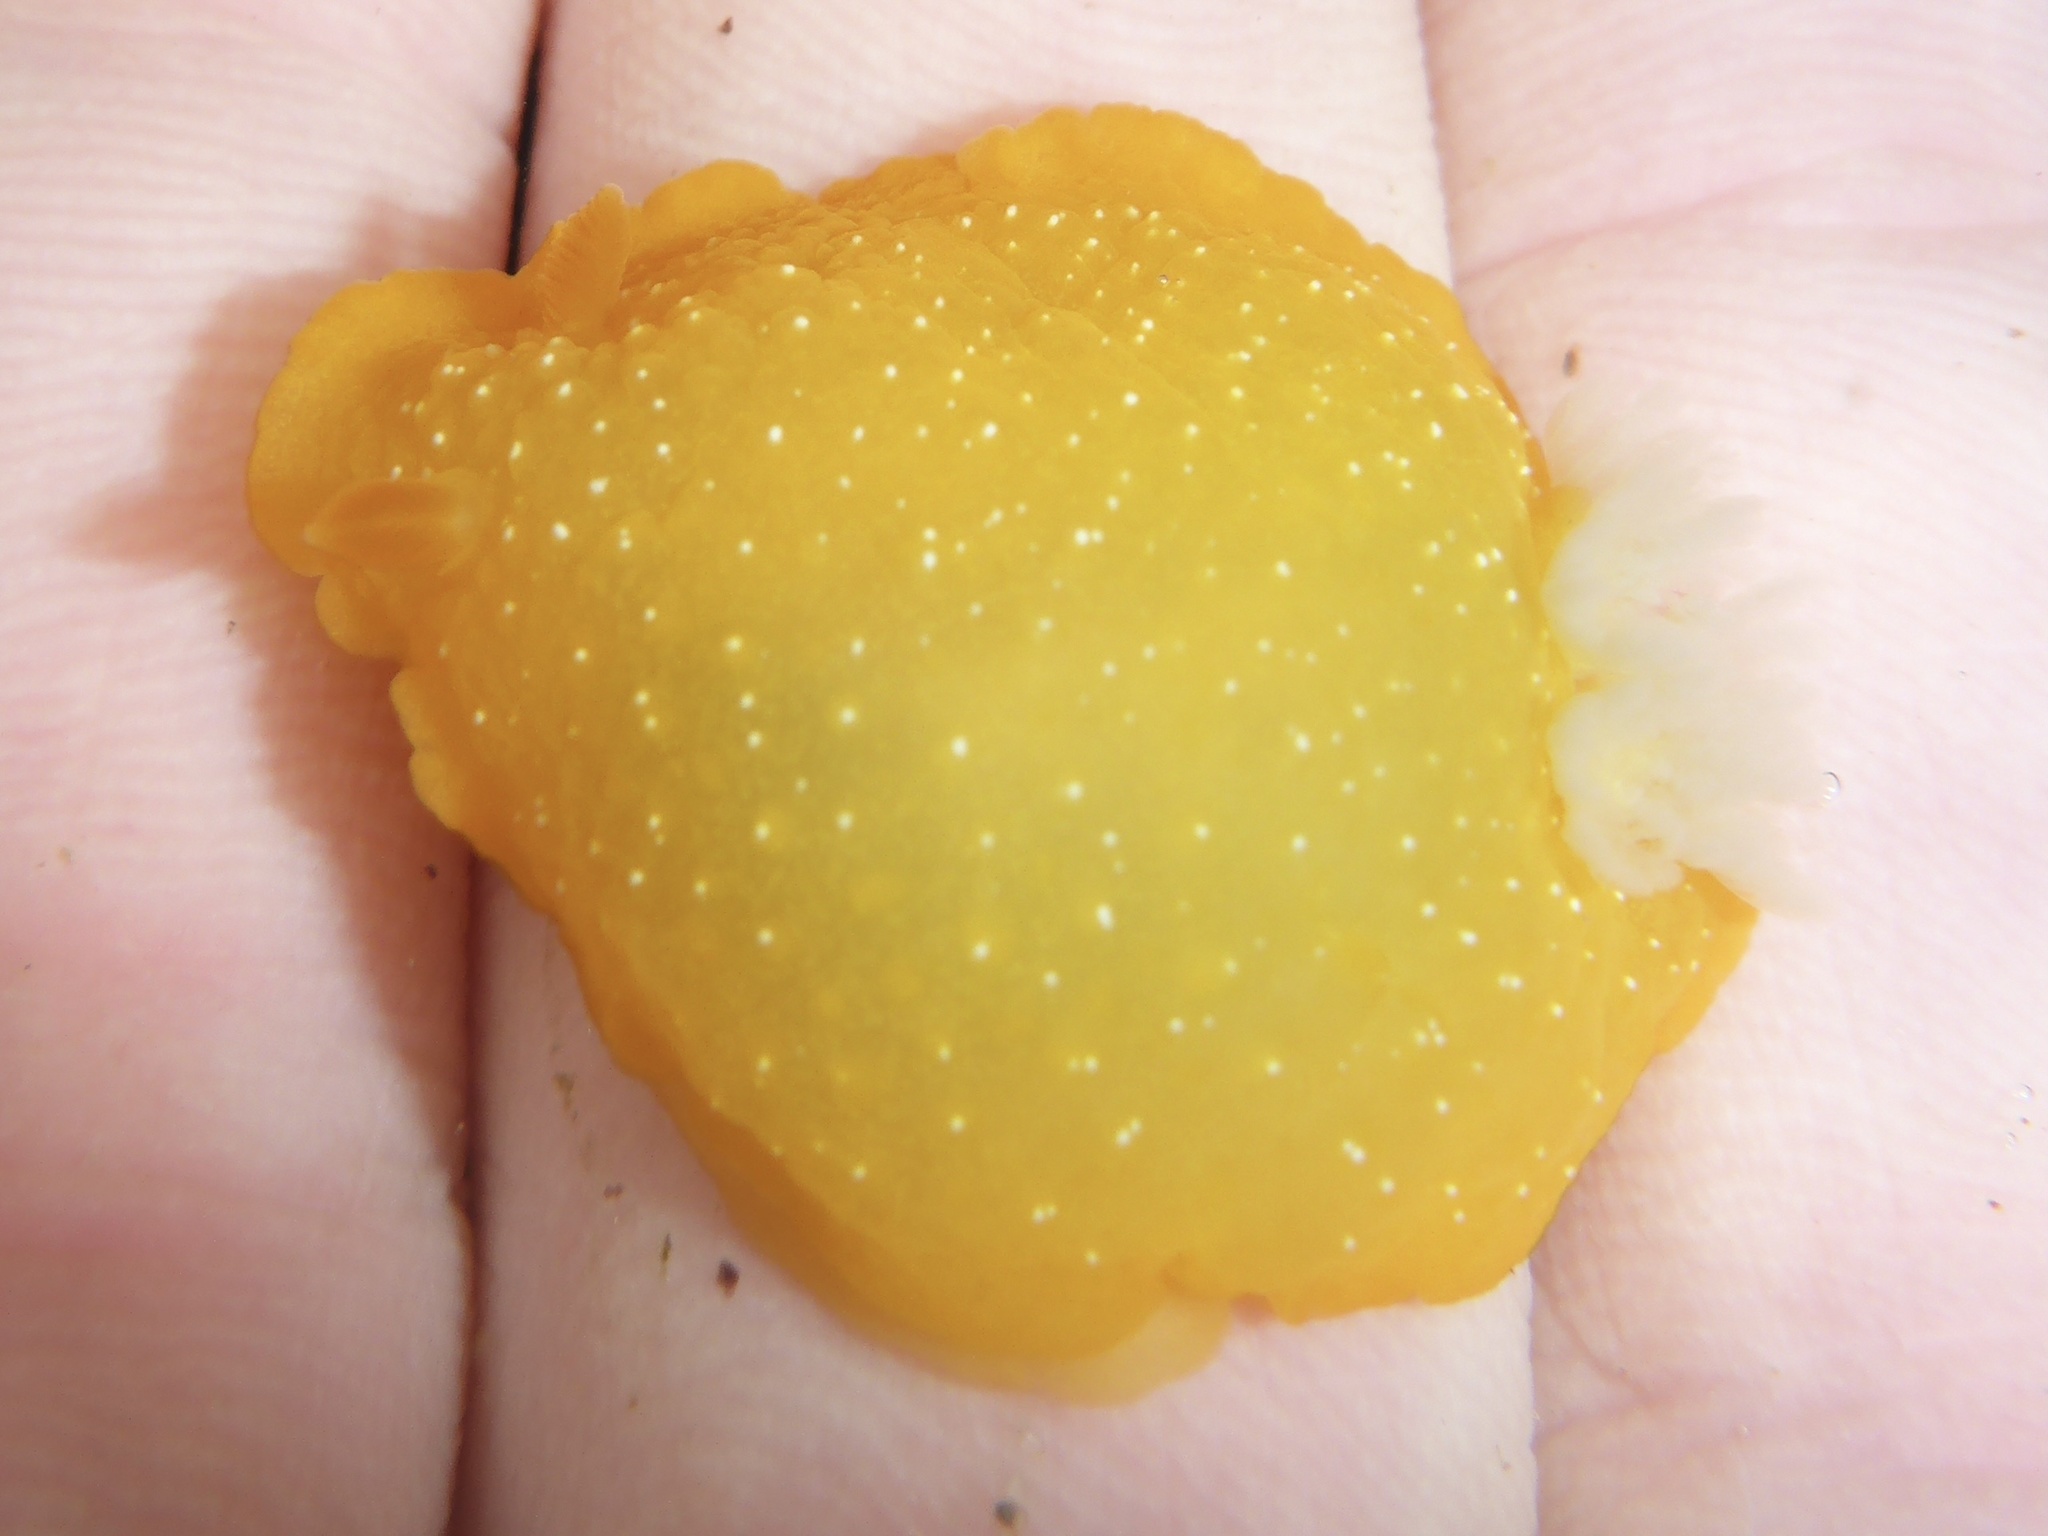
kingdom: Animalia
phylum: Mollusca
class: Gastropoda
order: Nudibranchia
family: Dendrodorididae
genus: Doriopsilla
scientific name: Doriopsilla fulva
